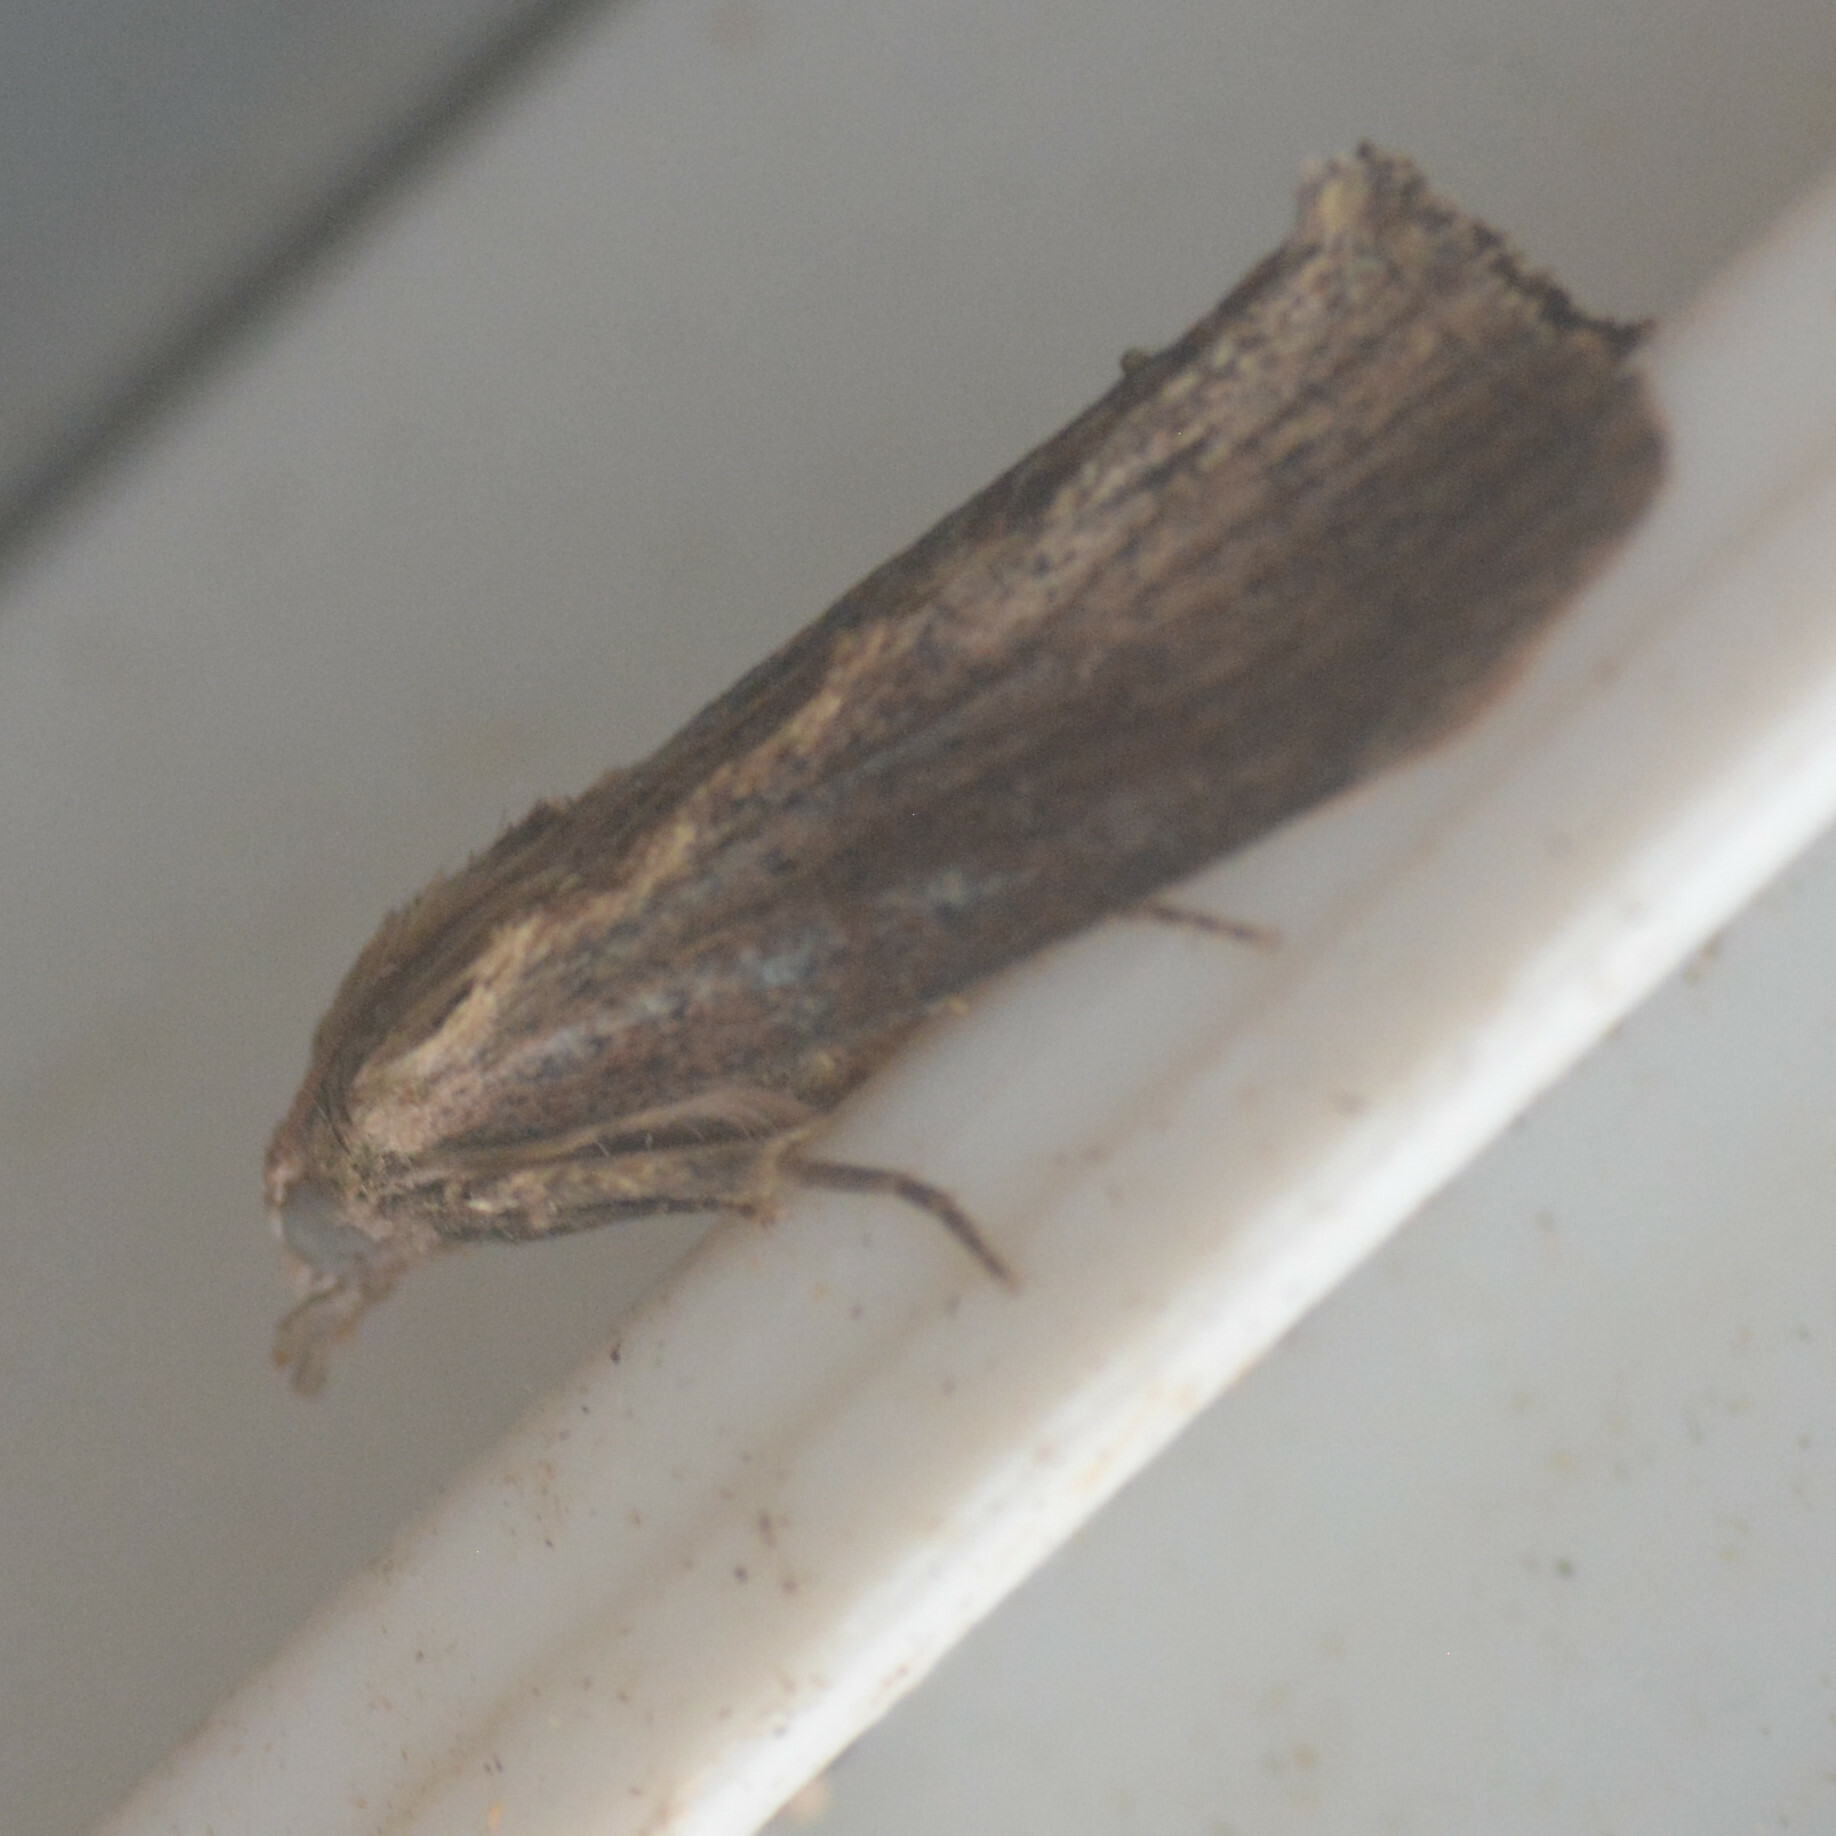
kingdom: Animalia
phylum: Arthropoda
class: Insecta
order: Lepidoptera
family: Pyralidae
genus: Galleria
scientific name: Galleria mellonella
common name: Greater wax moth
